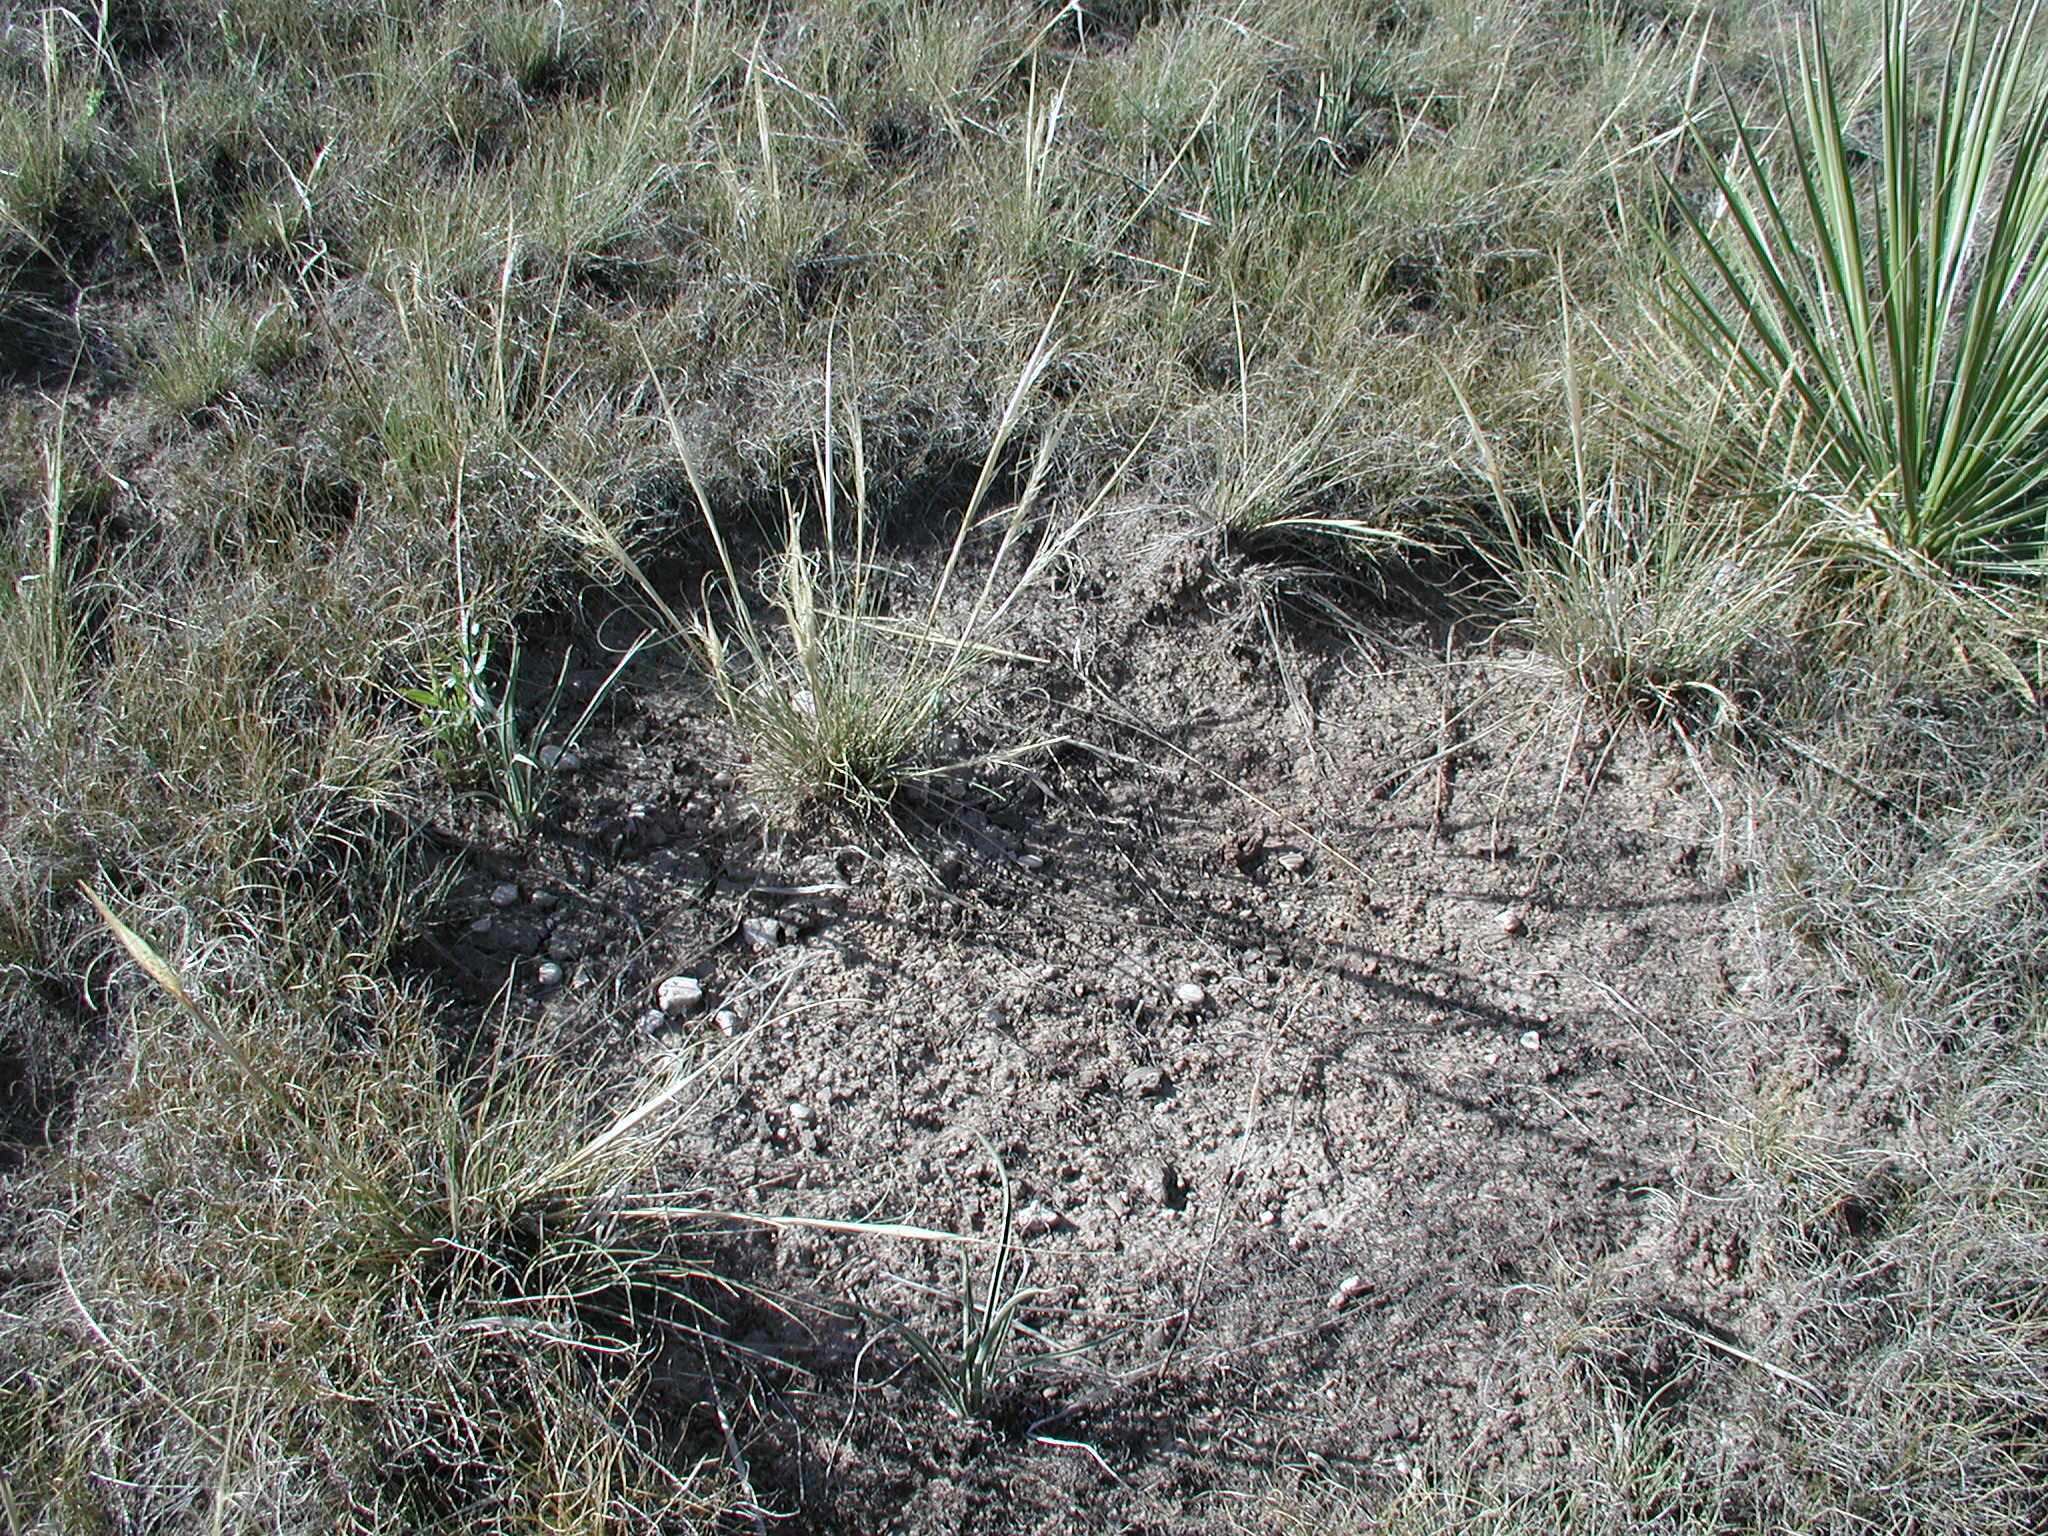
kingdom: Plantae
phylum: Tracheophyta
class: Liliopsida
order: Poales
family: Poaceae
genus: Hesperostipa
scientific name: Hesperostipa comata
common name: Needle-and-thread grass
